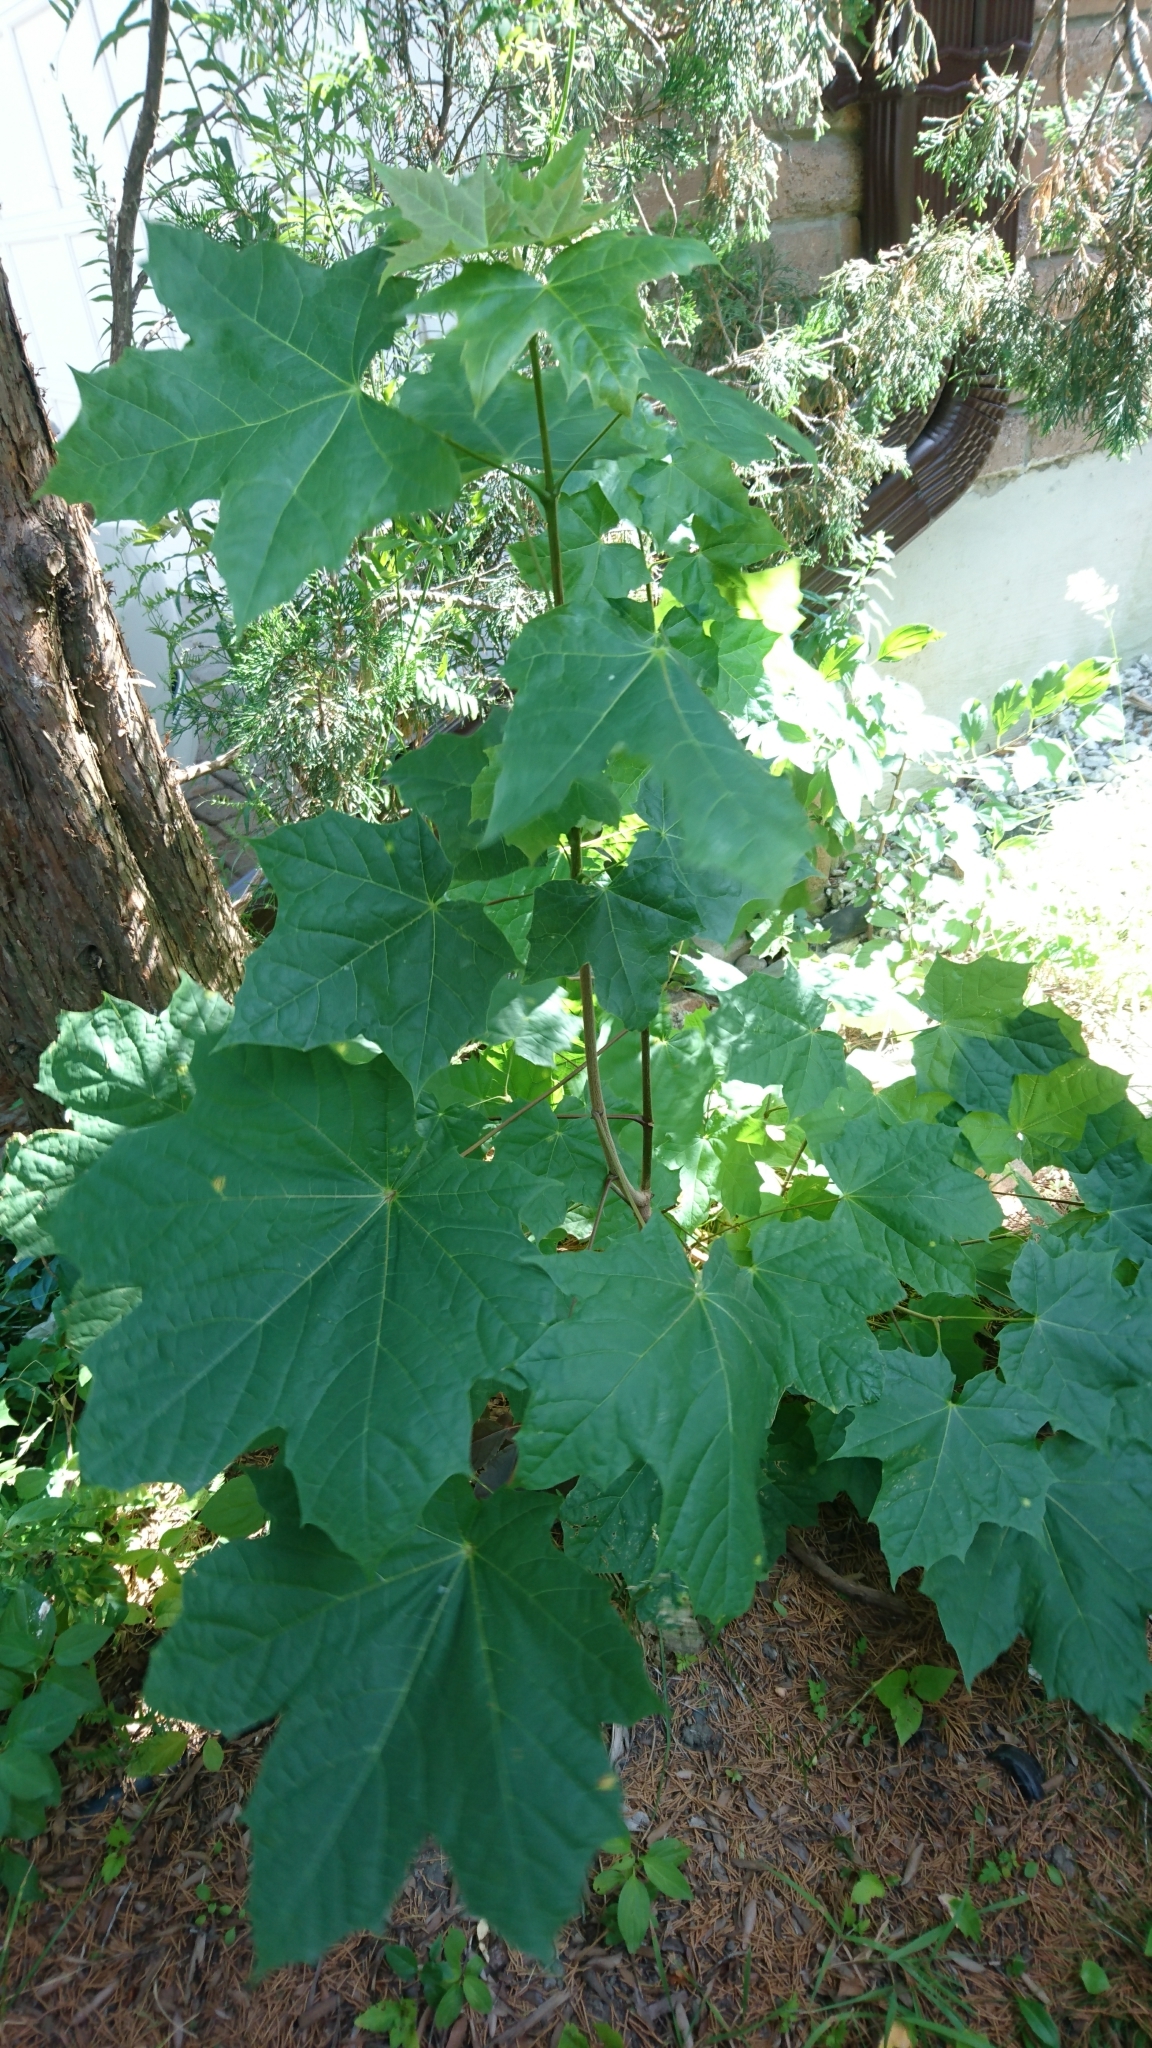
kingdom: Plantae
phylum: Tracheophyta
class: Magnoliopsida
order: Sapindales
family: Sapindaceae
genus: Acer
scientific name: Acer platanoides
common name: Norway maple
